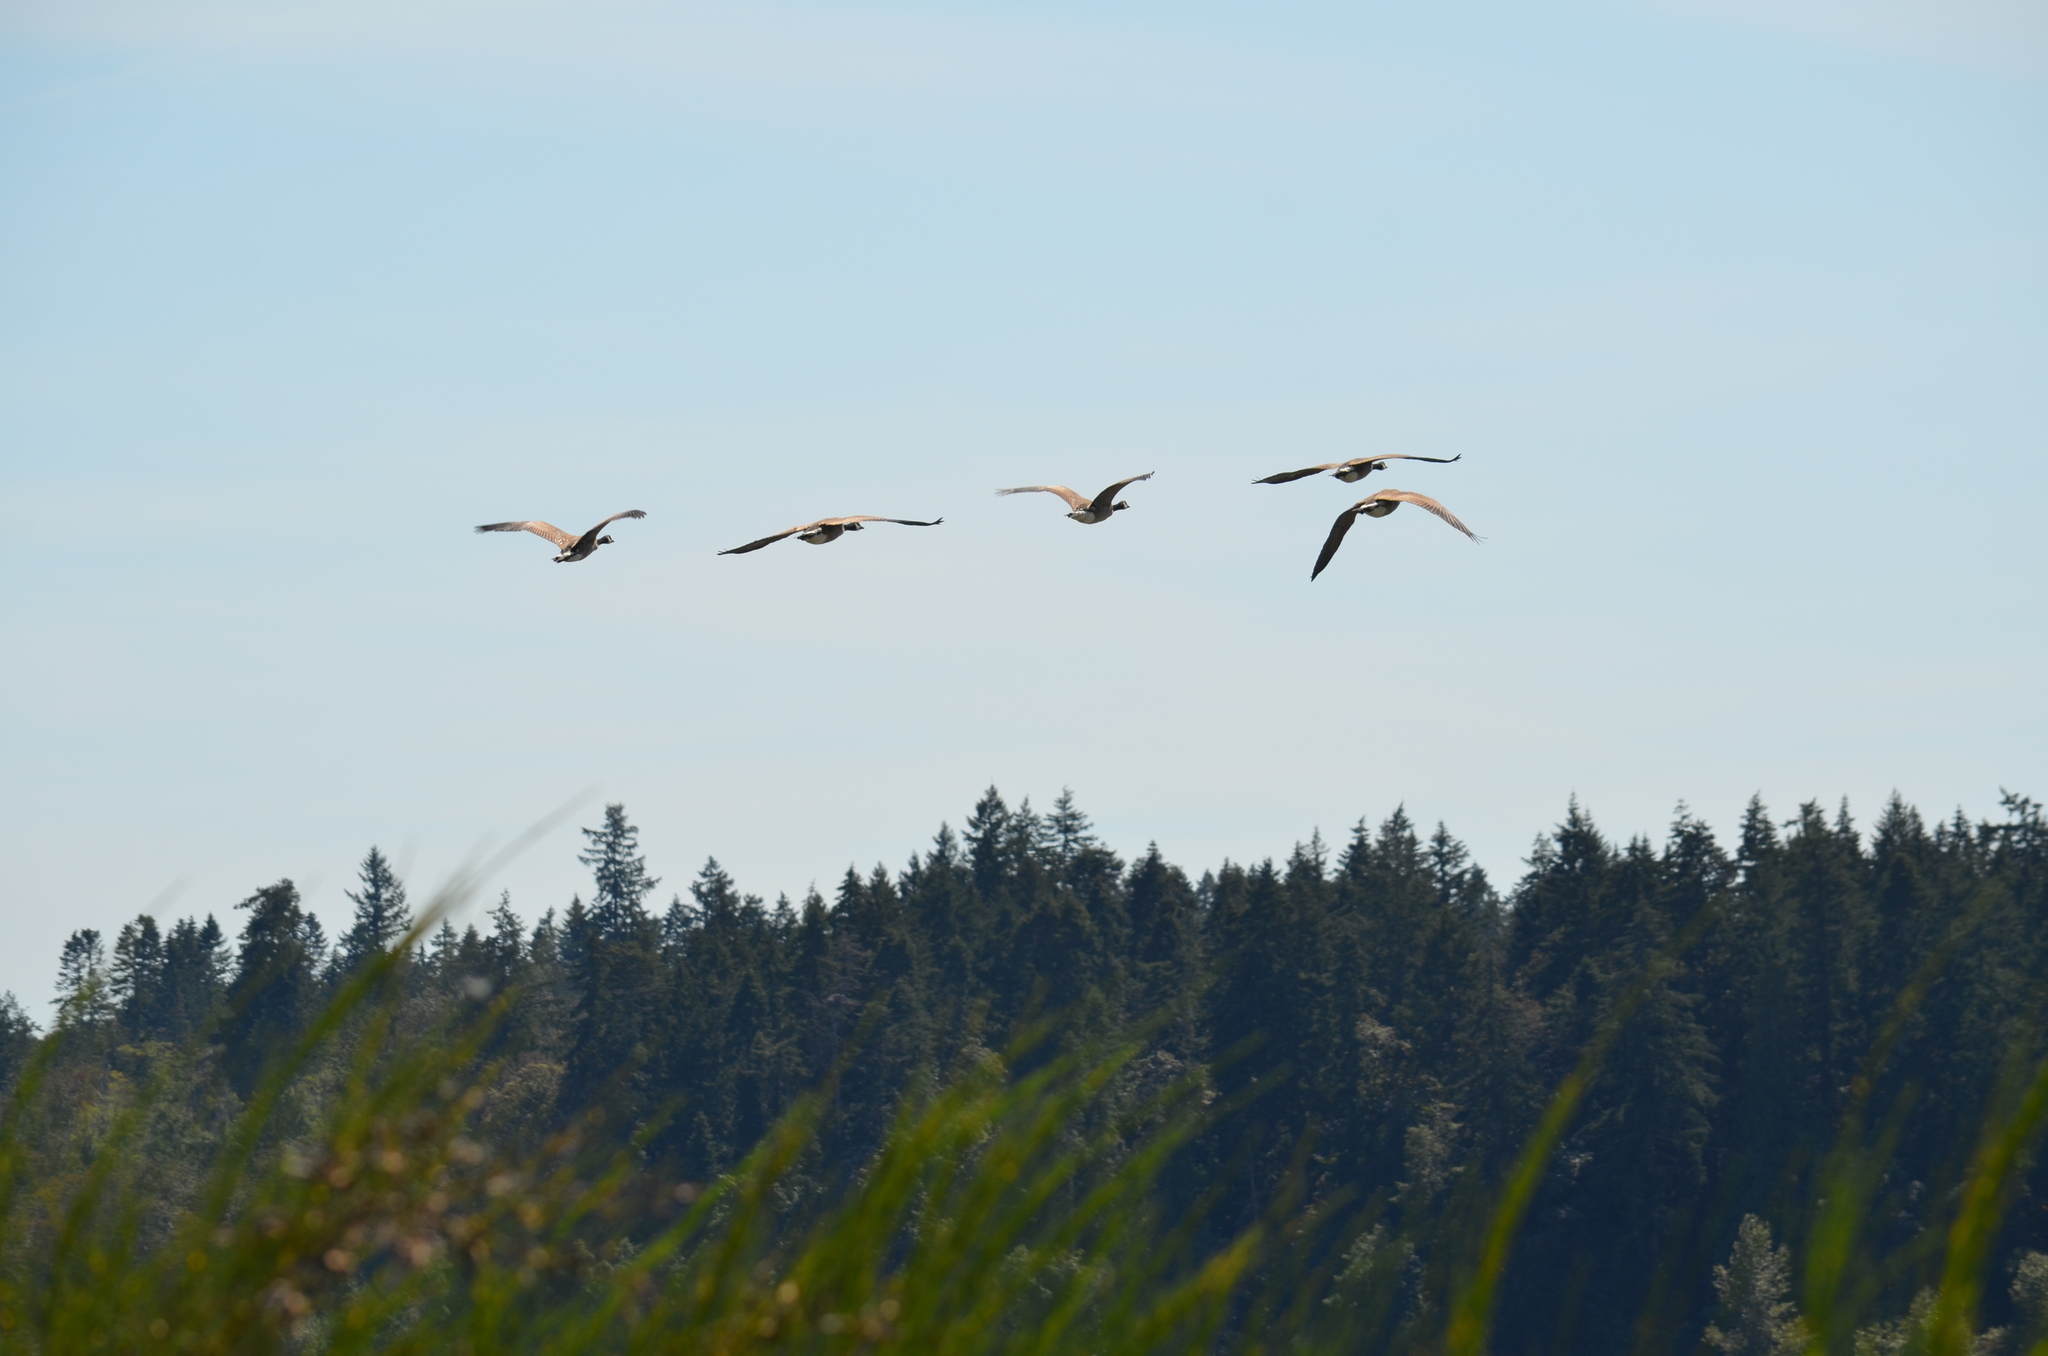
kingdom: Animalia
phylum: Chordata
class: Aves
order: Anseriformes
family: Anatidae
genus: Branta
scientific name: Branta canadensis
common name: Canada goose
